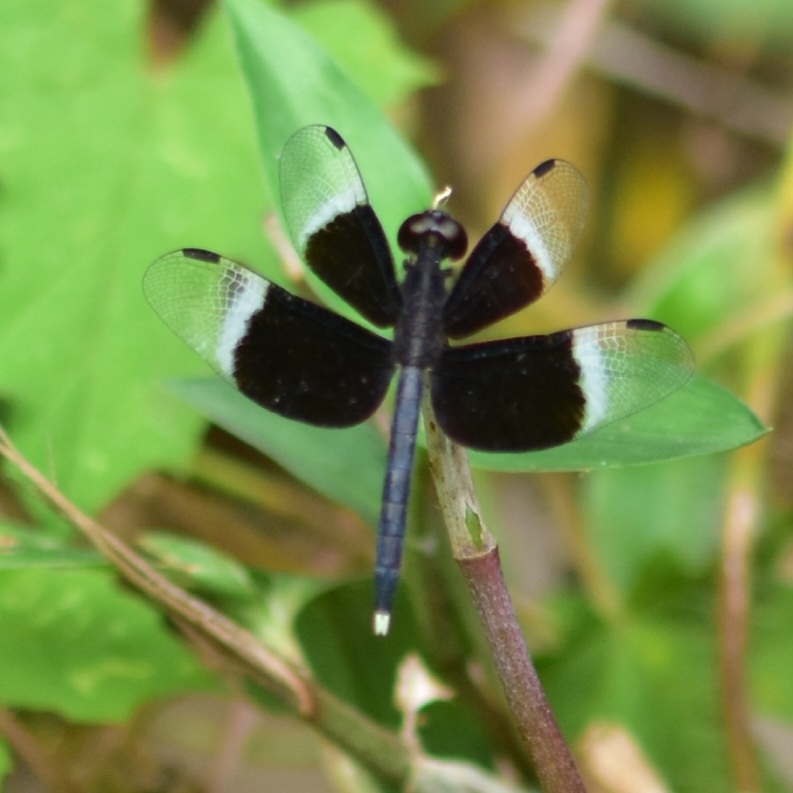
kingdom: Animalia
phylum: Arthropoda
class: Insecta
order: Odonata
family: Libellulidae
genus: Neurothemis
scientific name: Neurothemis tullia
